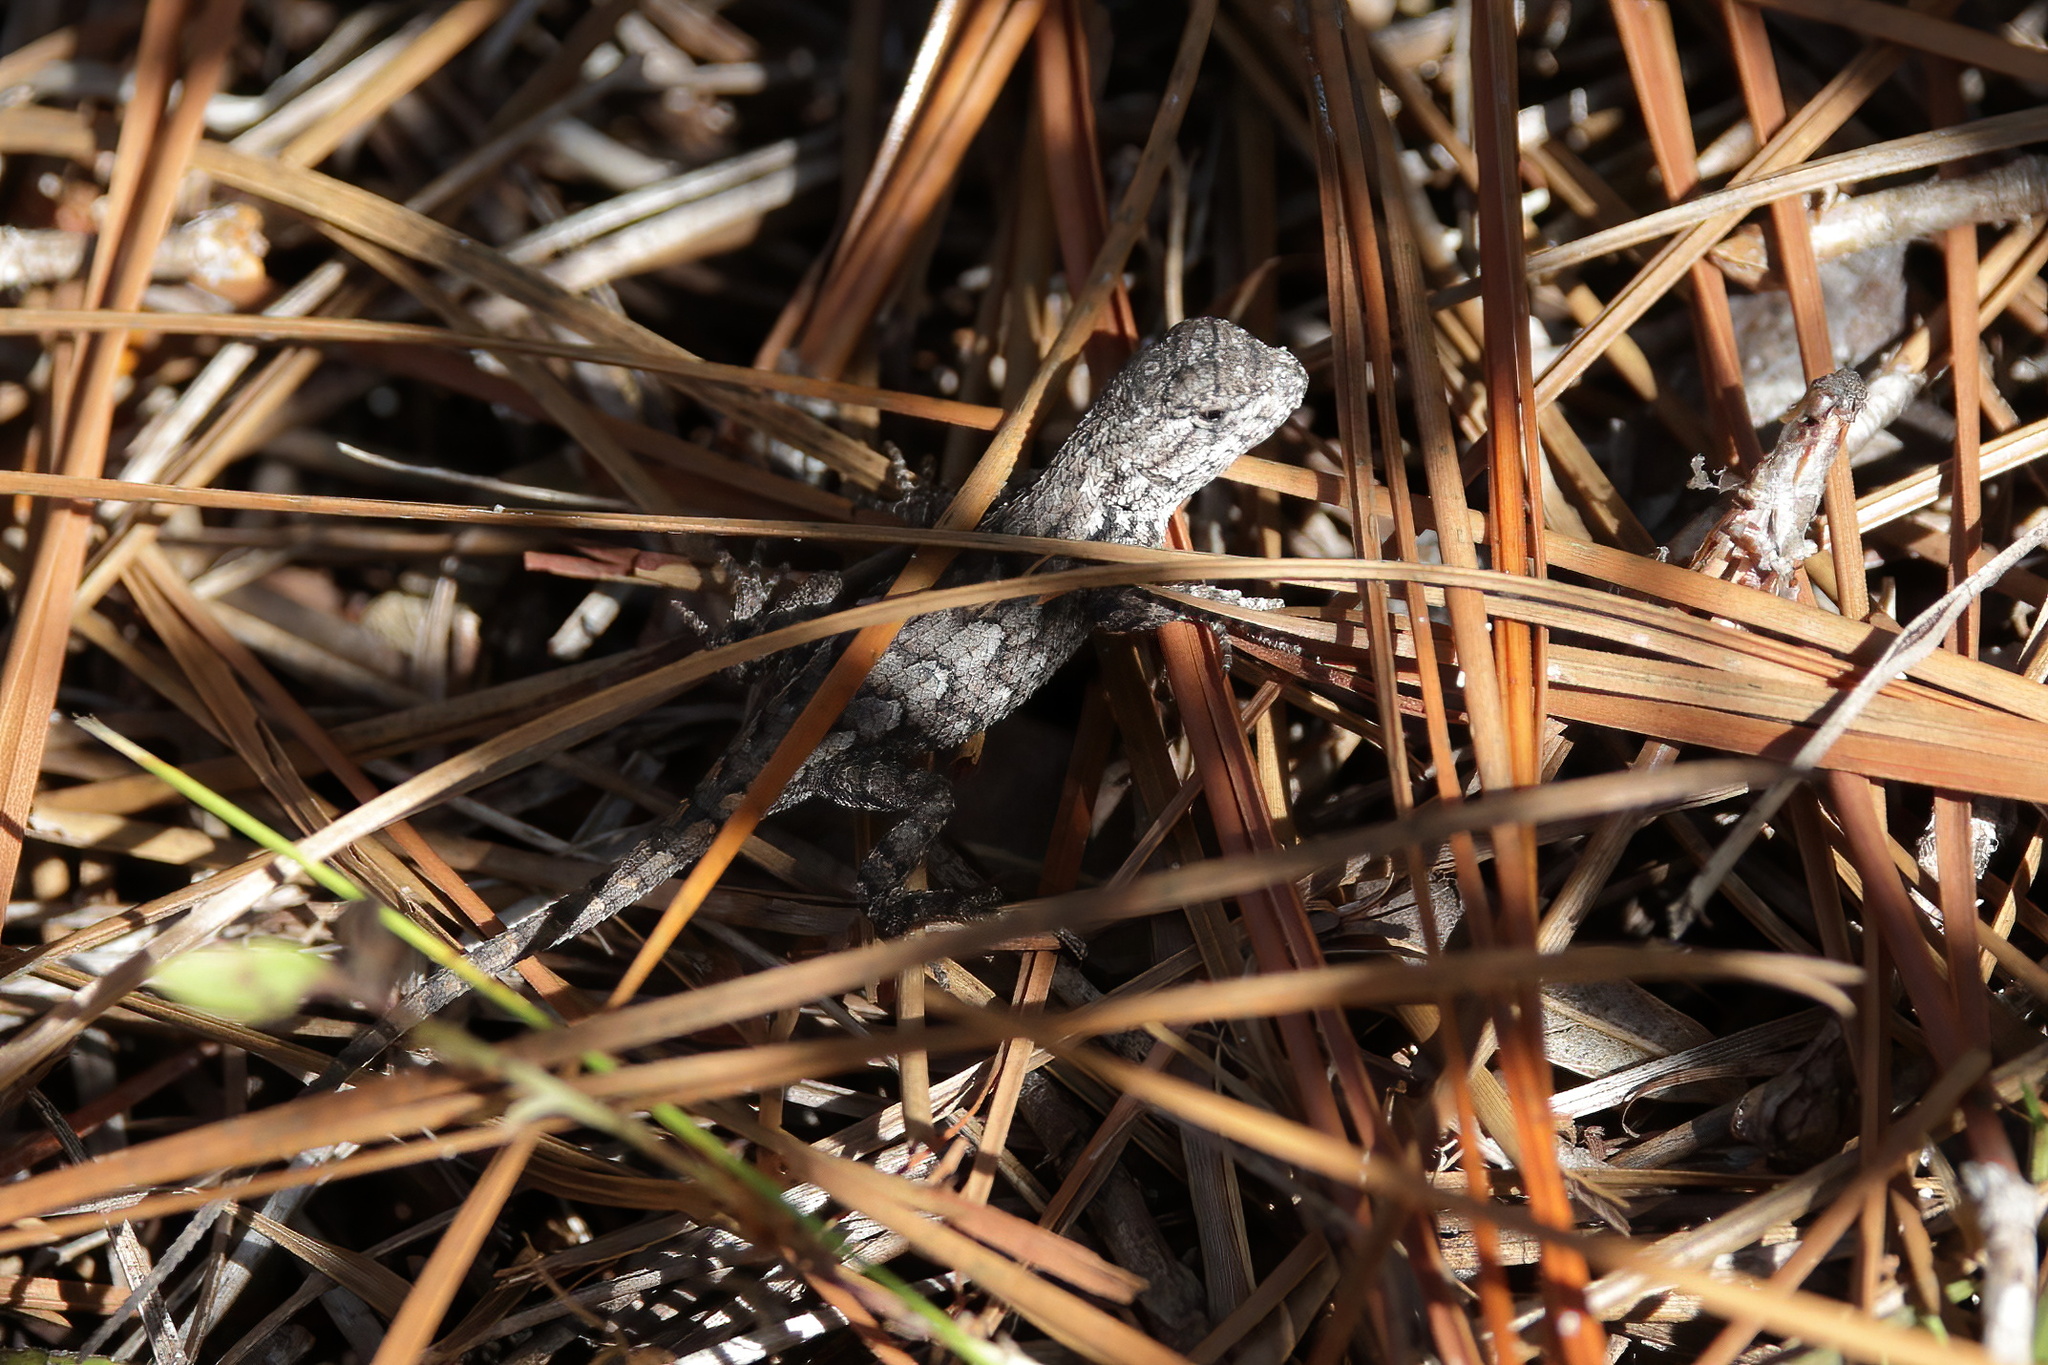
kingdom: Animalia
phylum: Chordata
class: Squamata
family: Phrynosomatidae
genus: Sceloporus
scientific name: Sceloporus undulatus
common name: Eastern fence lizard
